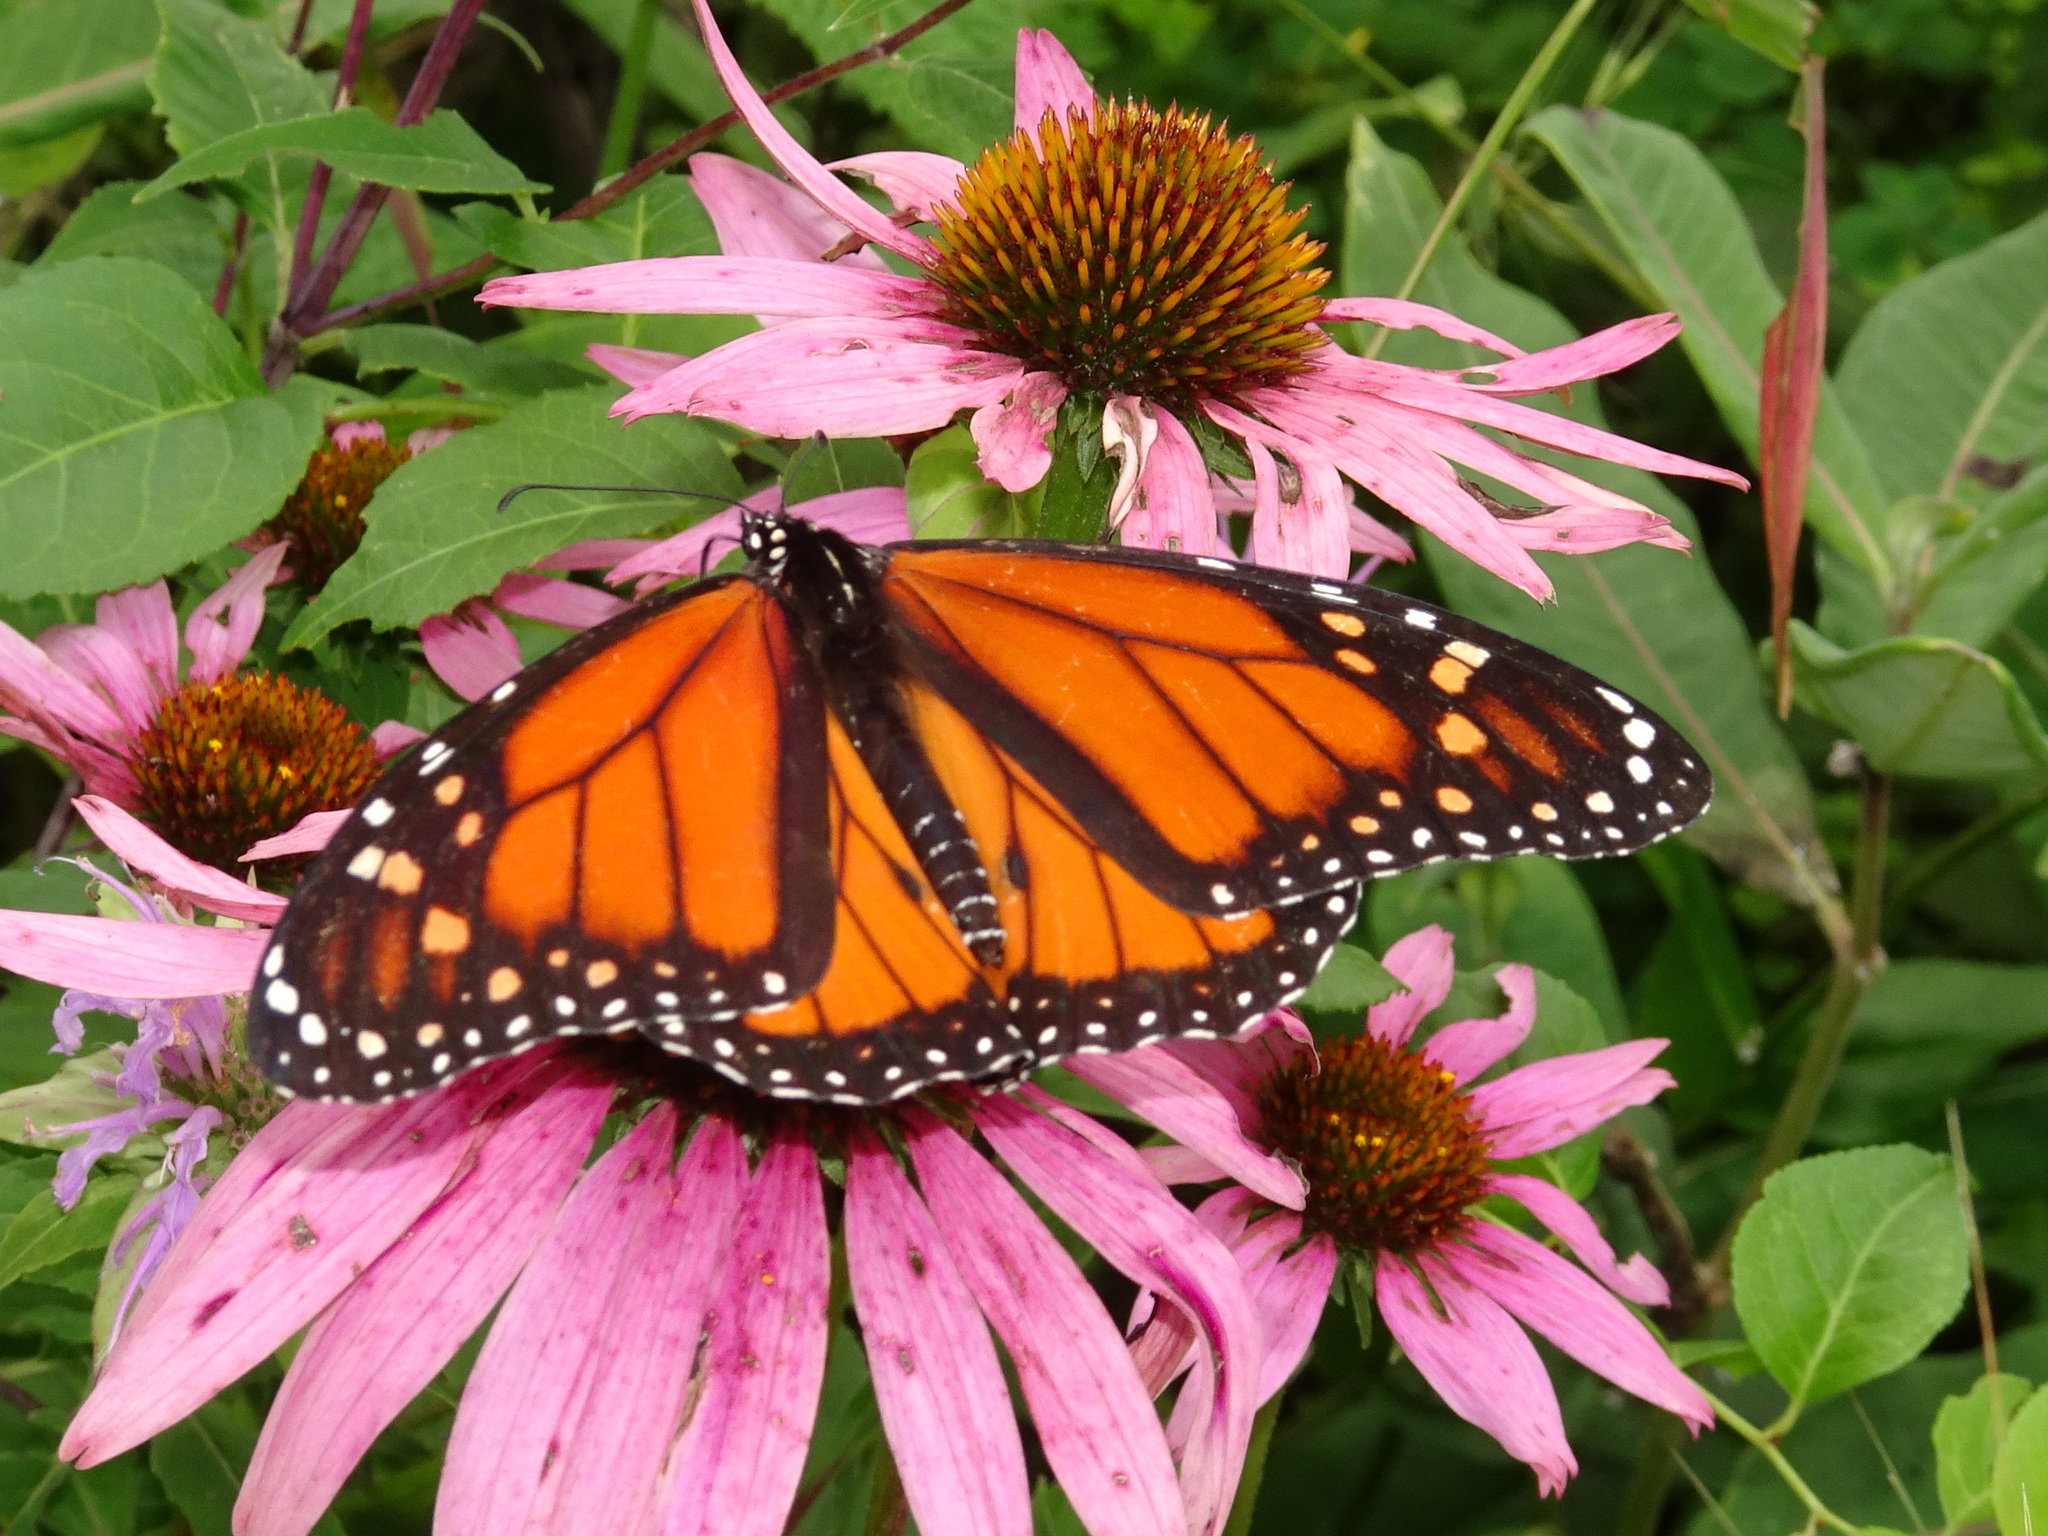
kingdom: Animalia
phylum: Arthropoda
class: Insecta
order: Lepidoptera
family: Nymphalidae
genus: Danaus
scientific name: Danaus plexippus
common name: Monarch
